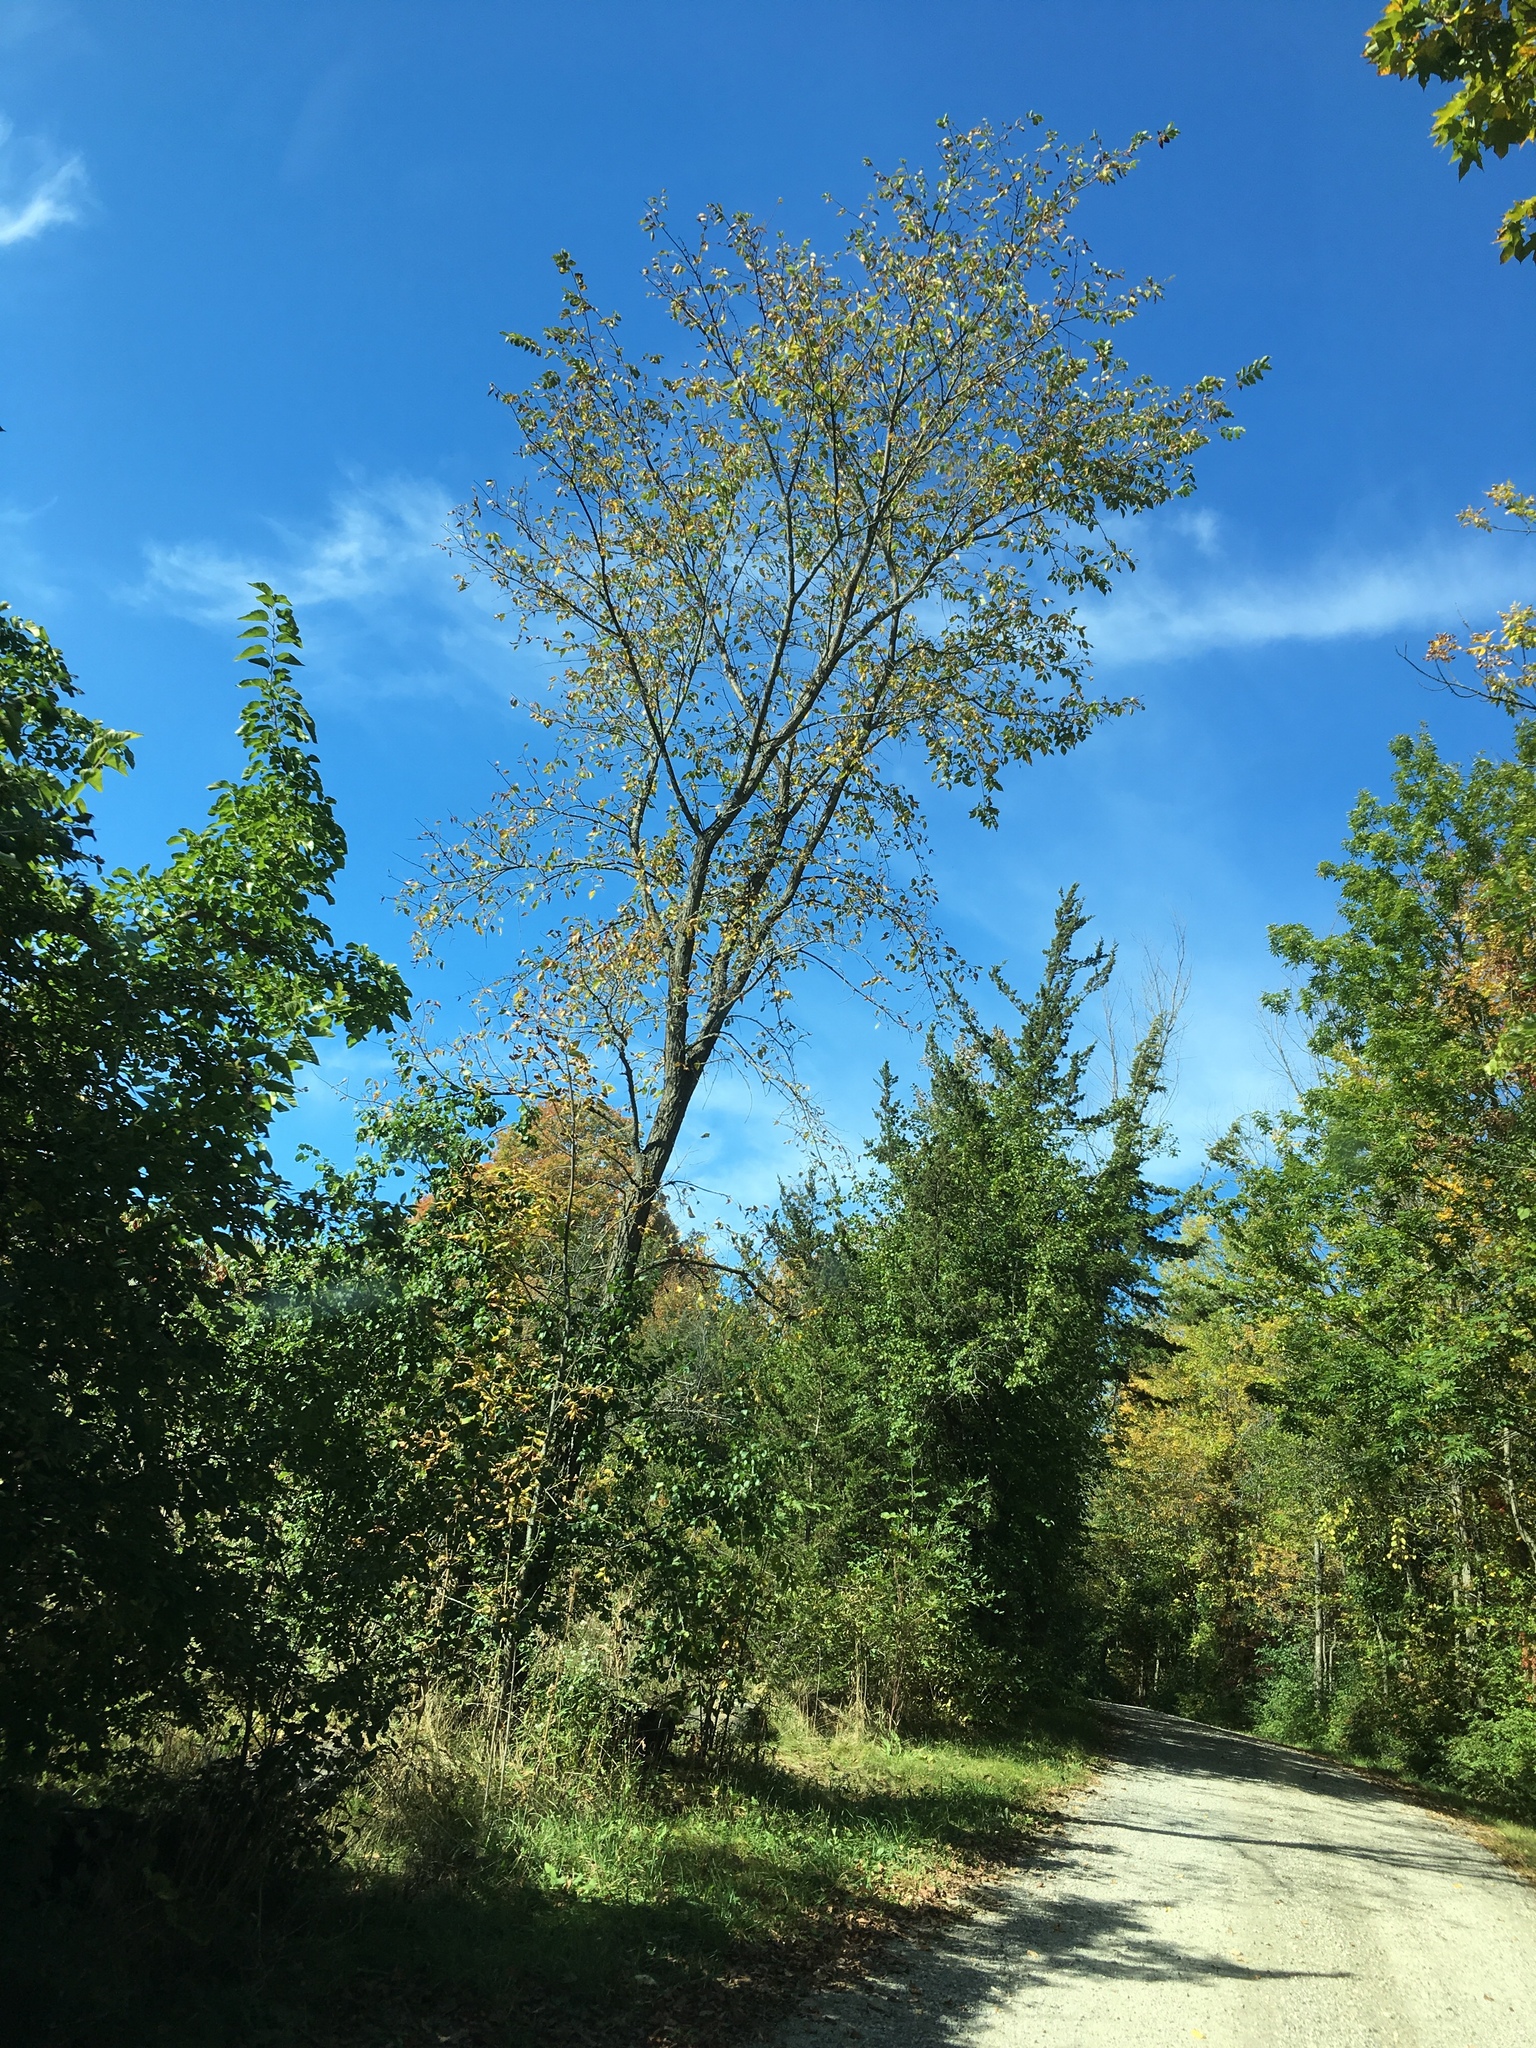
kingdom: Plantae
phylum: Tracheophyta
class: Magnoliopsida
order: Rosales
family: Ulmaceae
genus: Ulmus
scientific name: Ulmus americana
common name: American elm
